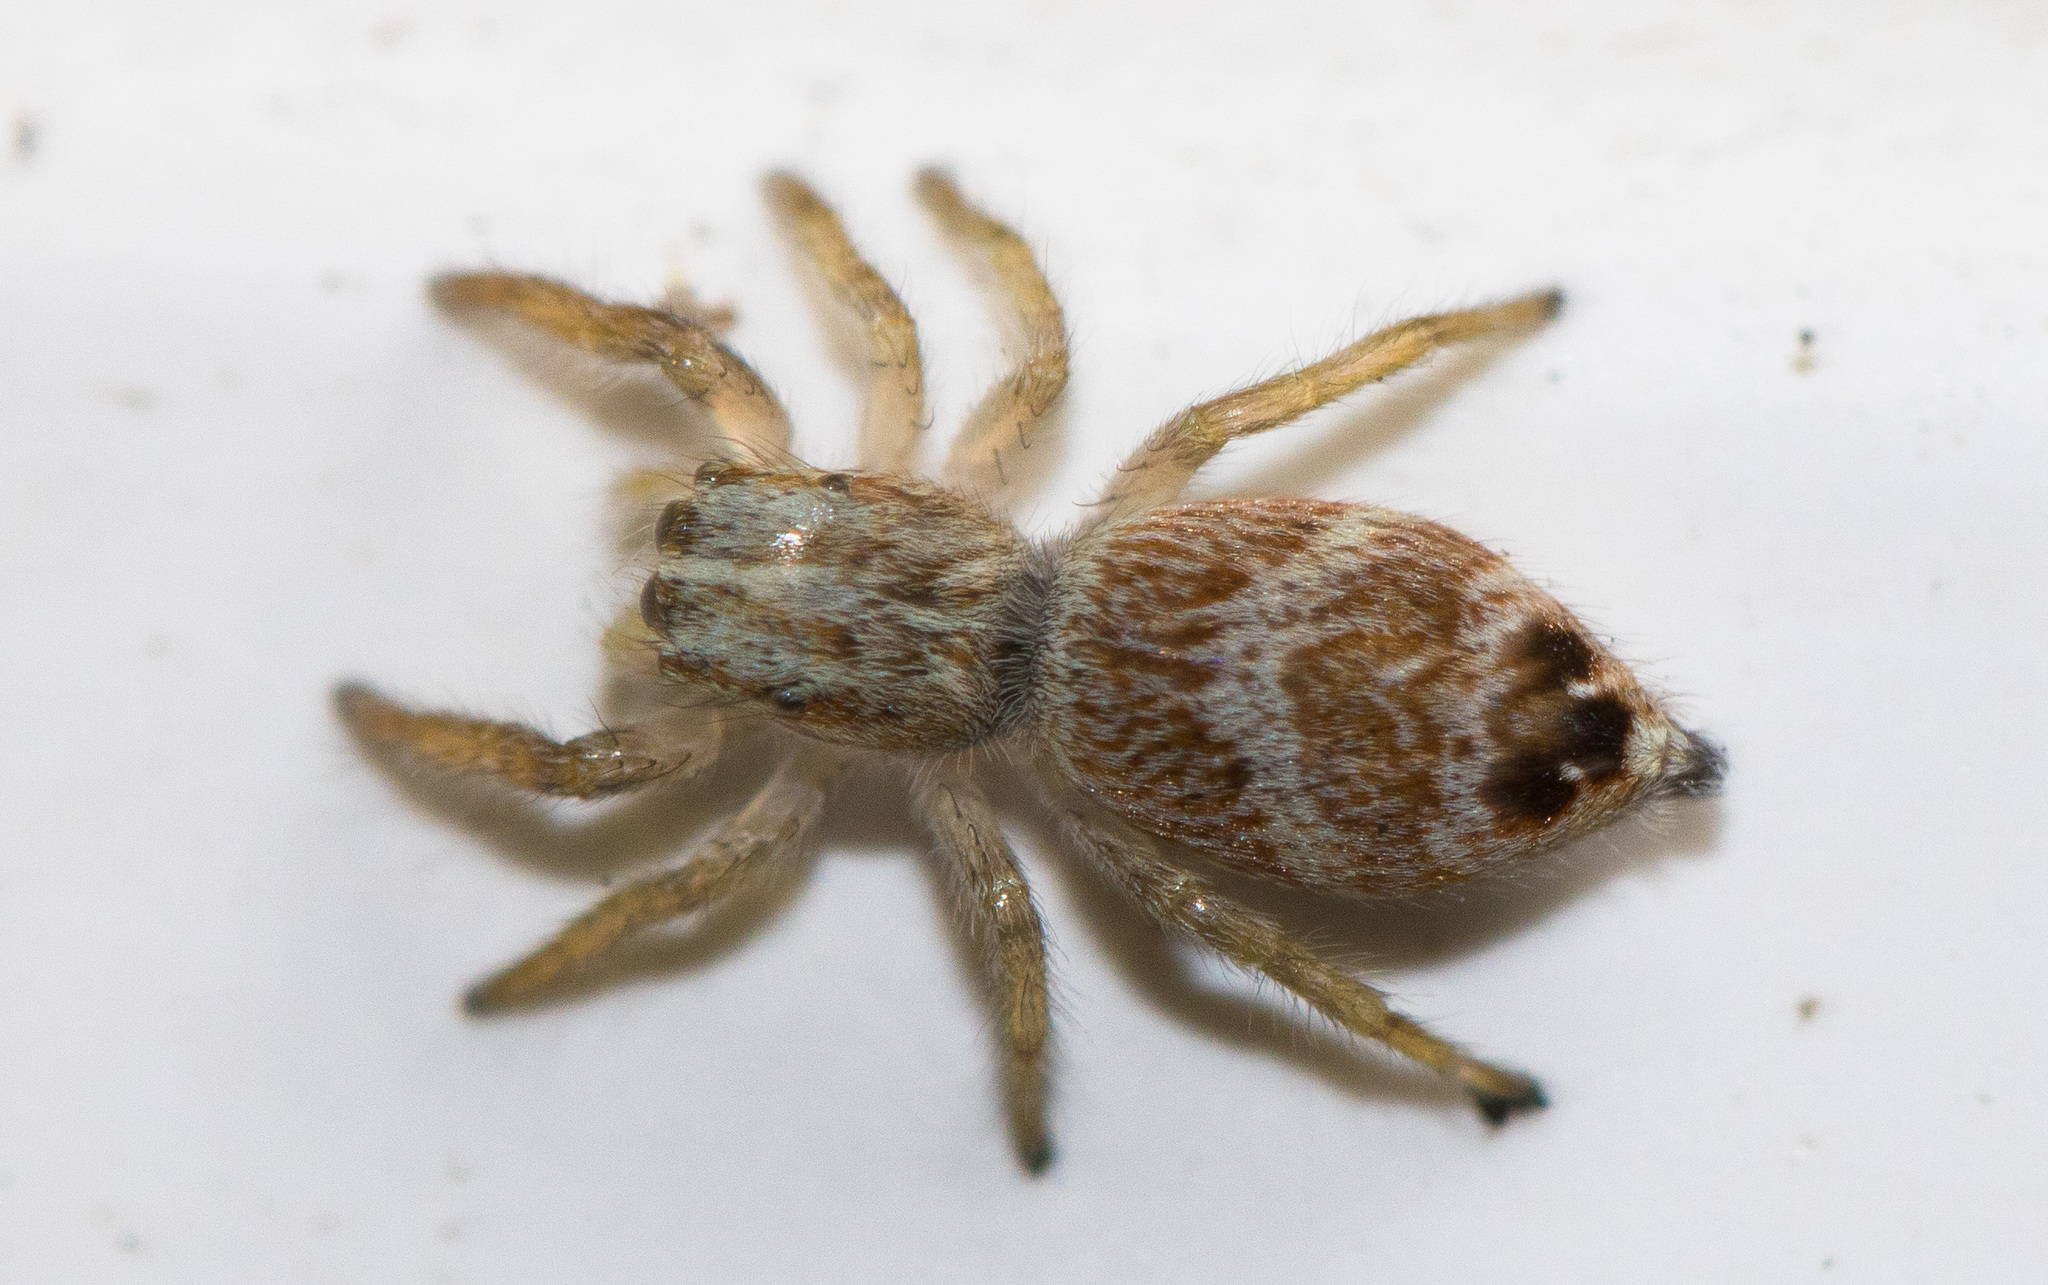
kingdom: Animalia
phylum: Arthropoda
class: Arachnida
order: Araneae
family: Salticidae
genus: Rudakius
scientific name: Rudakius cinctus
